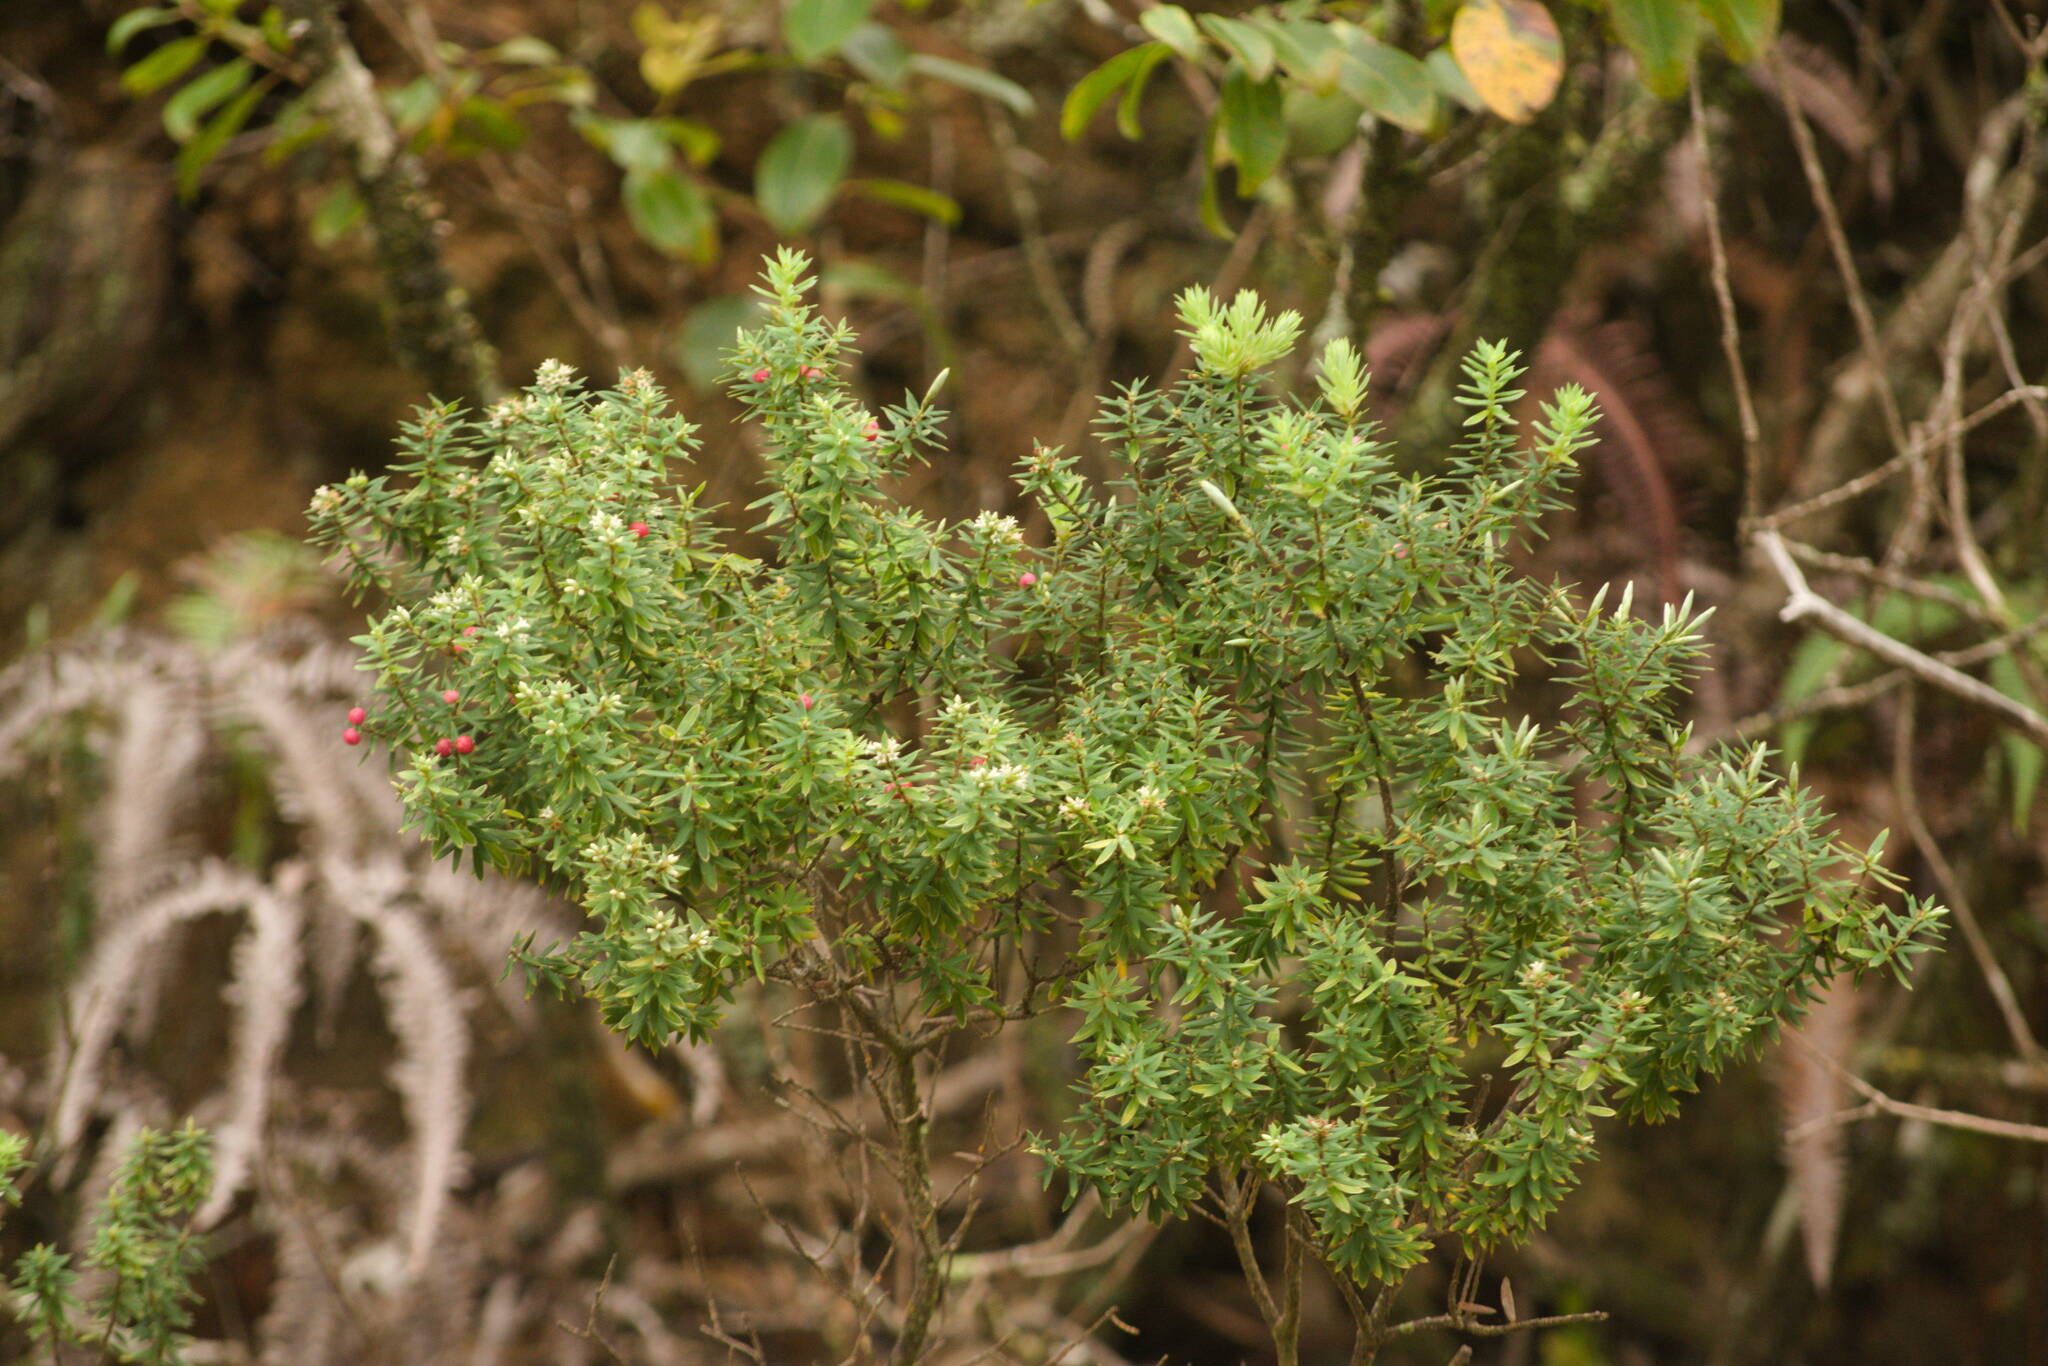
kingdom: Plantae
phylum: Tracheophyta
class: Magnoliopsida
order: Ericales
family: Ericaceae
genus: Leptecophylla
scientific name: Leptecophylla tameiameiae
